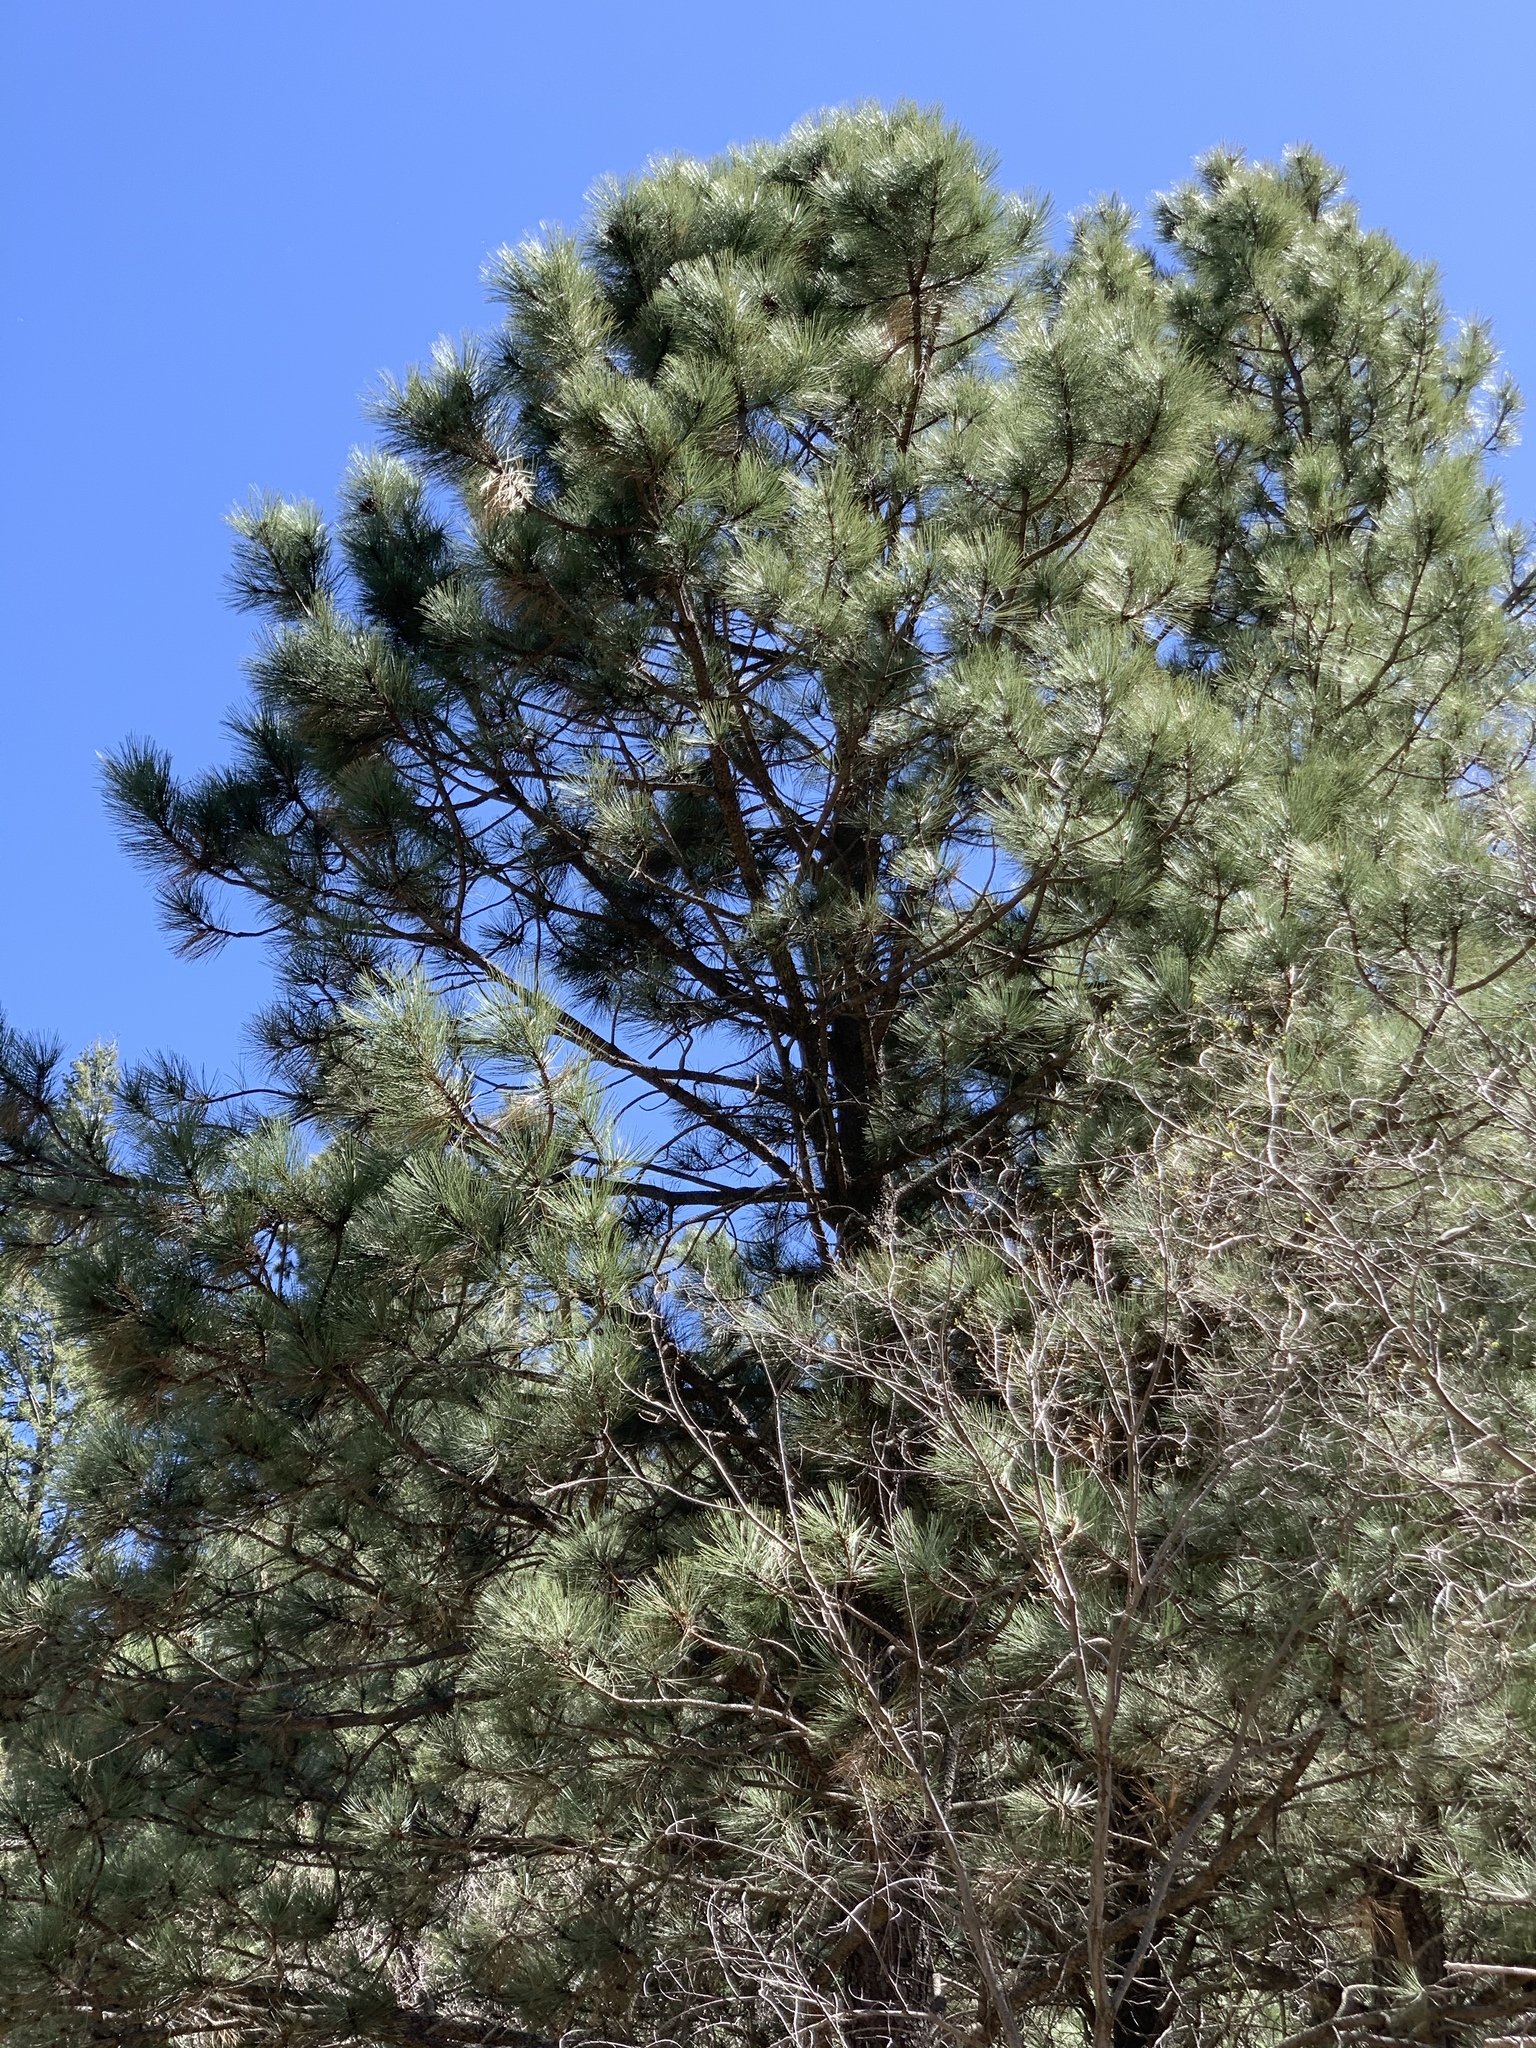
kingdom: Plantae
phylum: Tracheophyta
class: Pinopsida
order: Pinales
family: Pinaceae
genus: Pinus
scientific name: Pinus ponderosa
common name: Western yellow-pine
